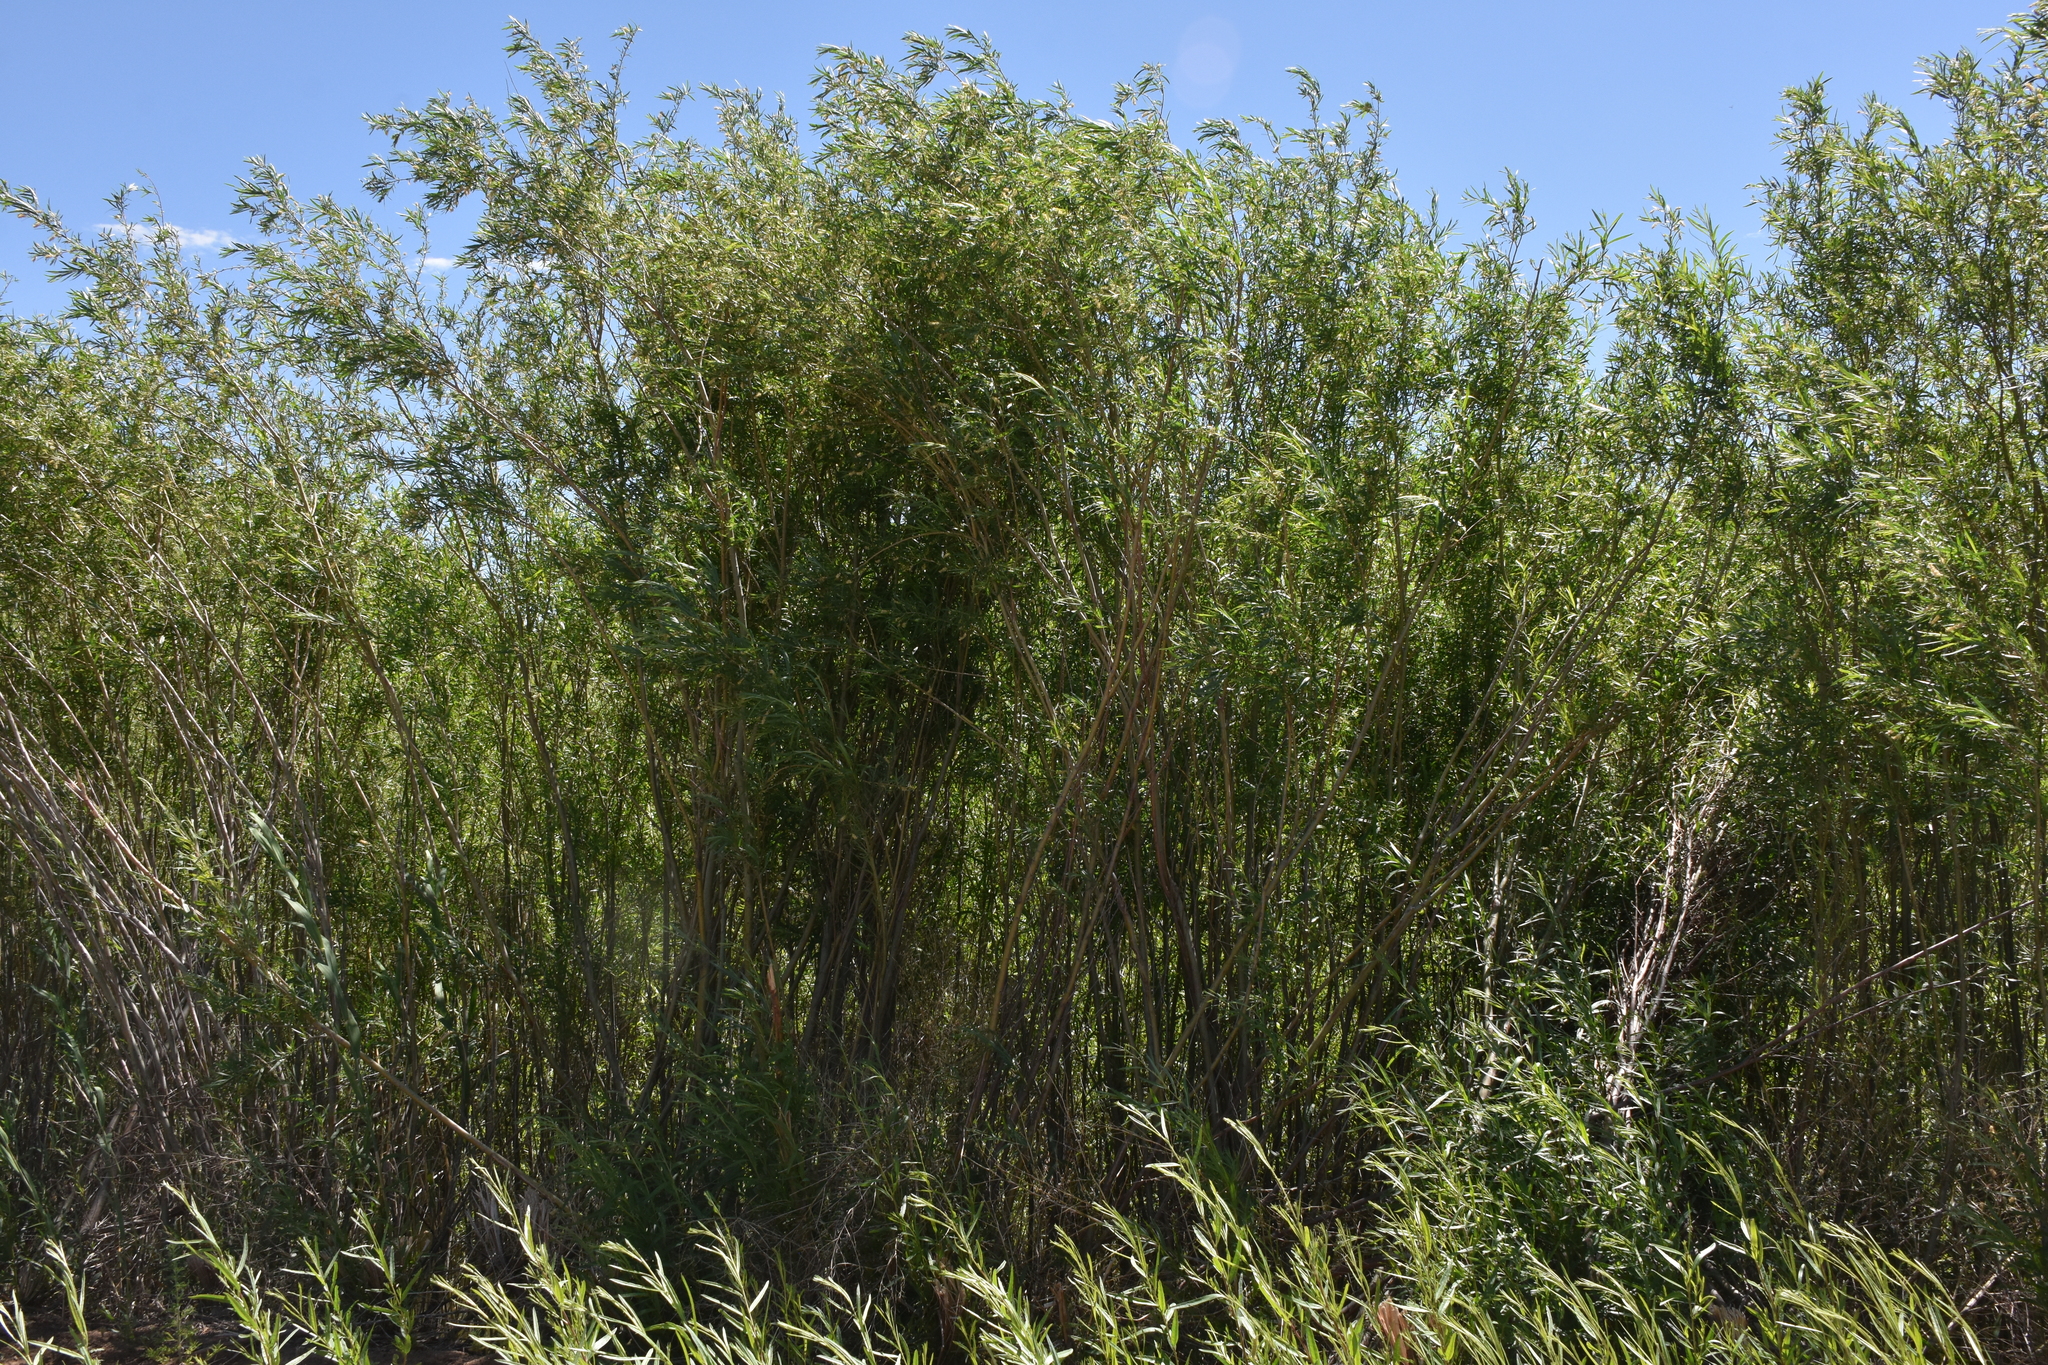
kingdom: Plantae
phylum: Tracheophyta
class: Magnoliopsida
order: Malpighiales
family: Salicaceae
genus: Salix
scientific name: Salix exigua
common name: Coyote willow
